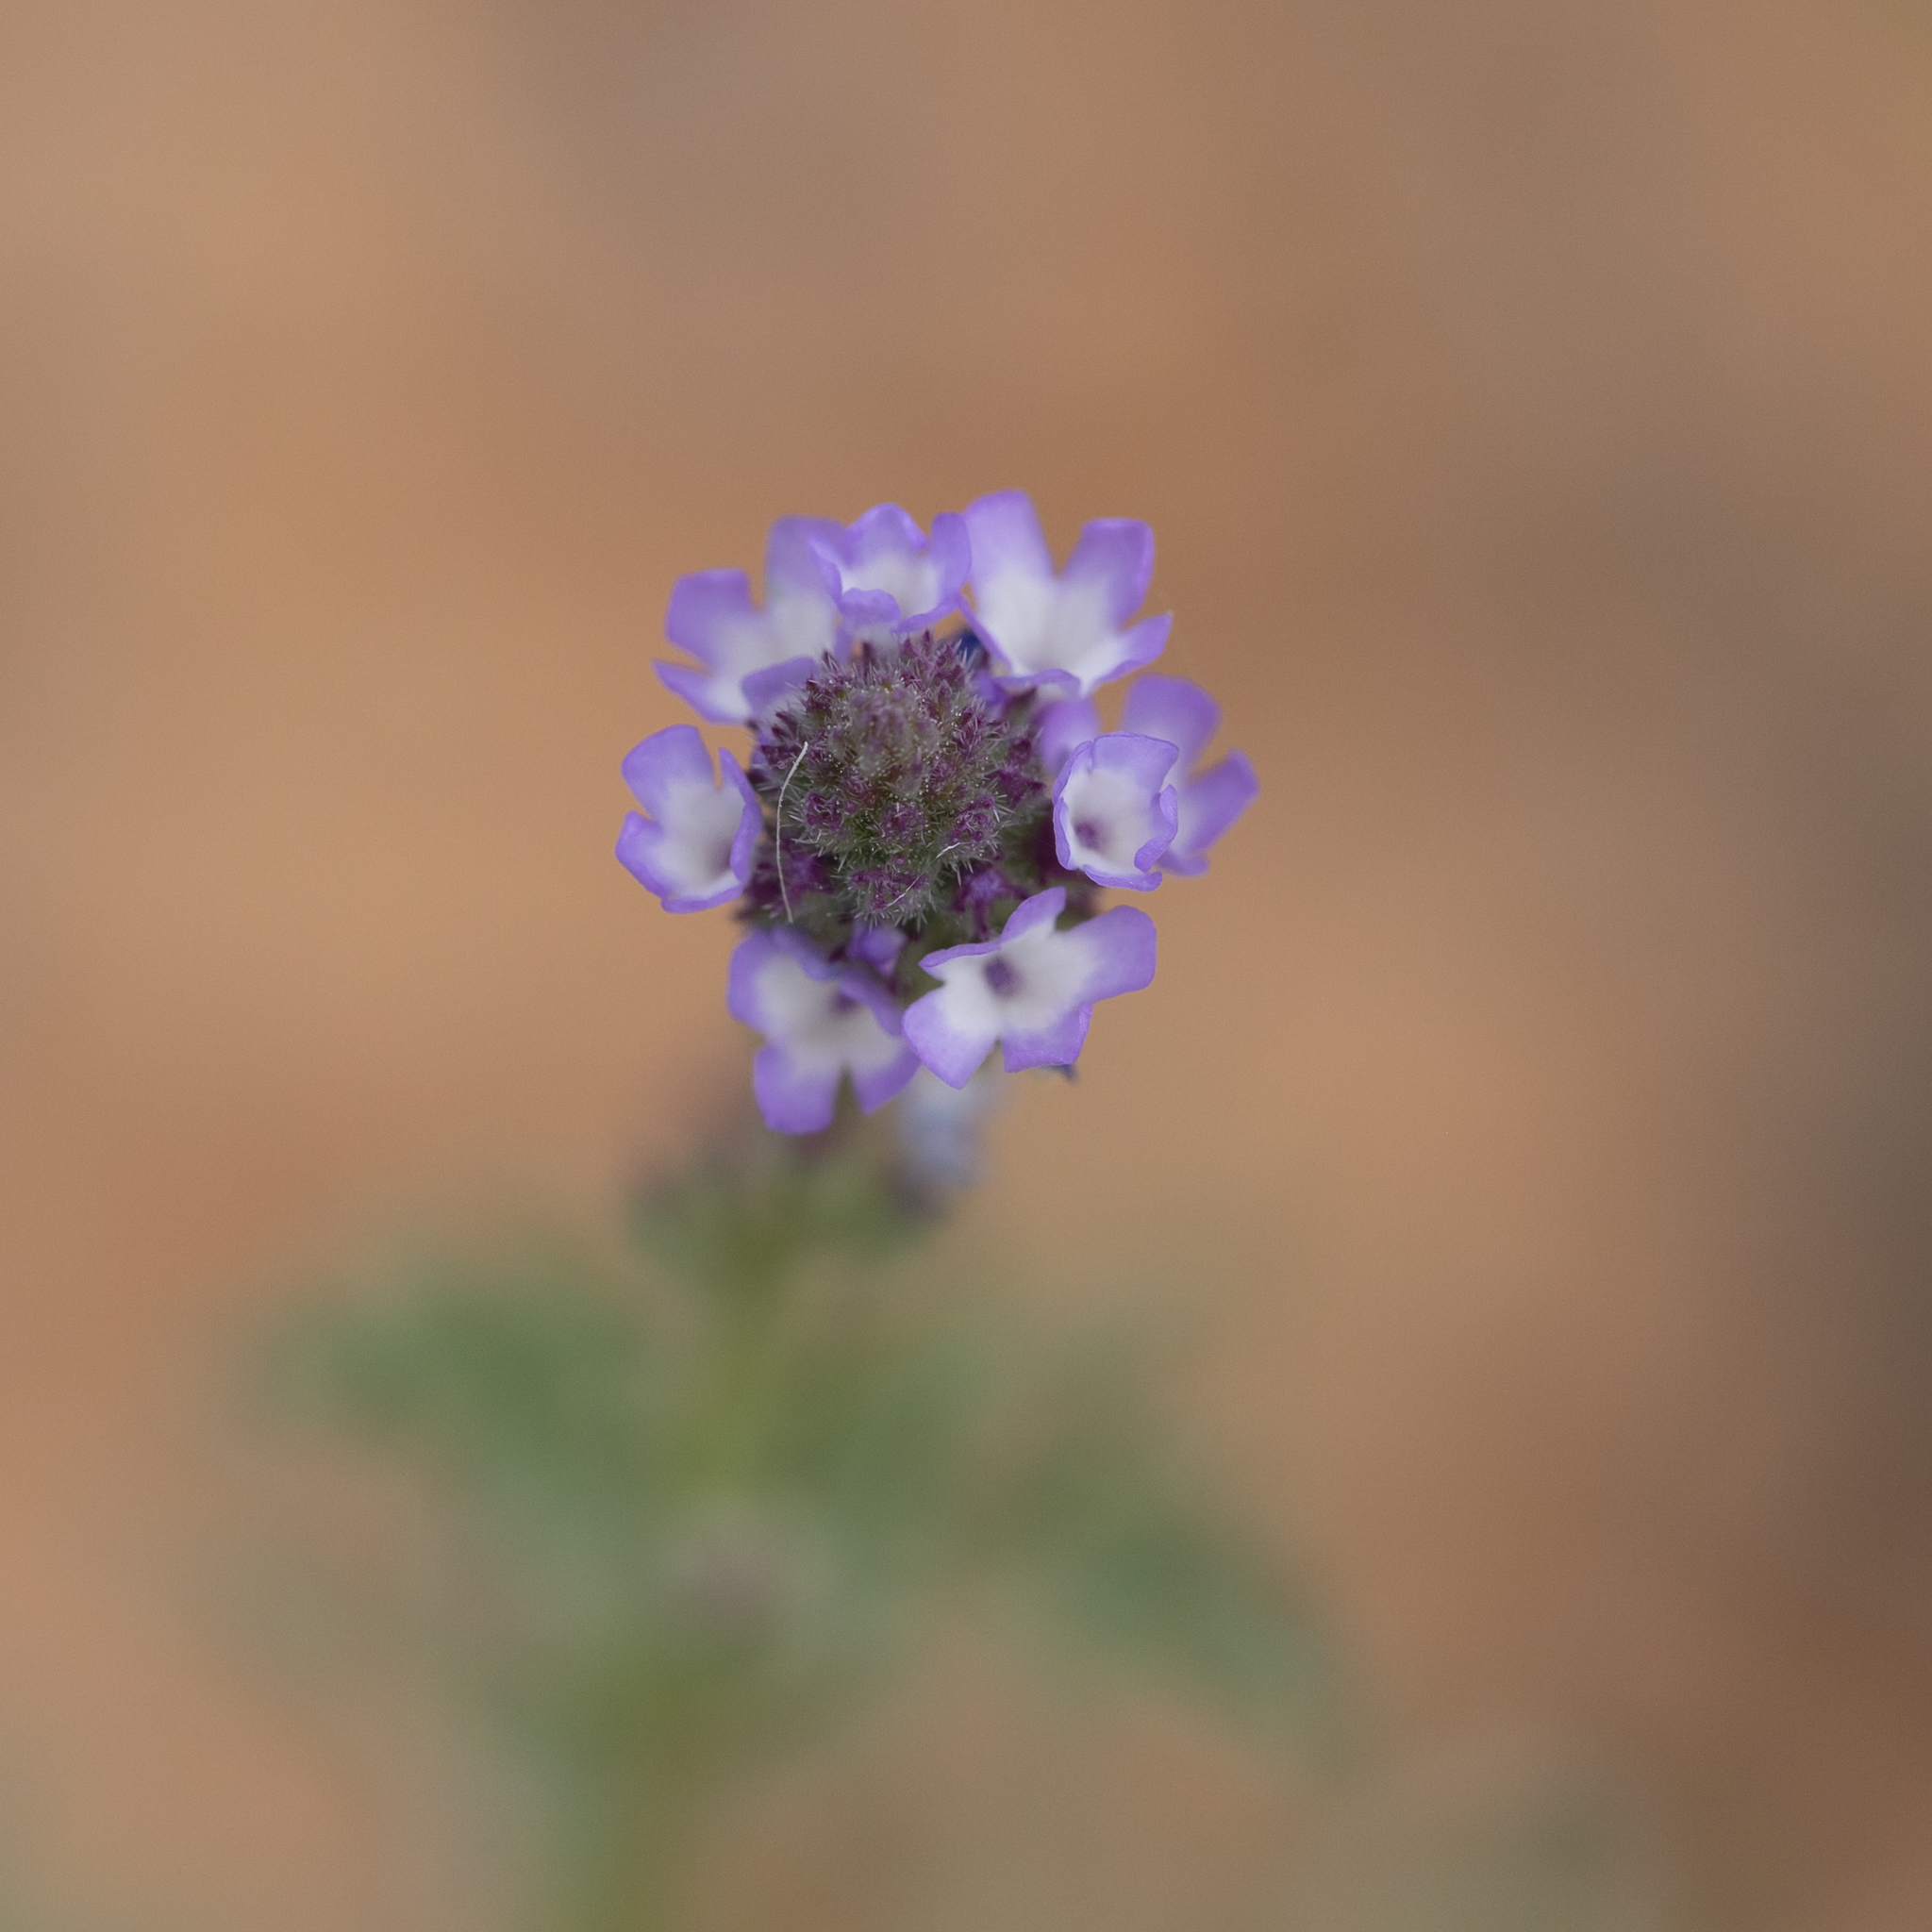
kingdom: Plantae
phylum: Tracheophyta
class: Magnoliopsida
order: Lamiales
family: Verbenaceae
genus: Verbena
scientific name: Verbena supina
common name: Trailing vervain
